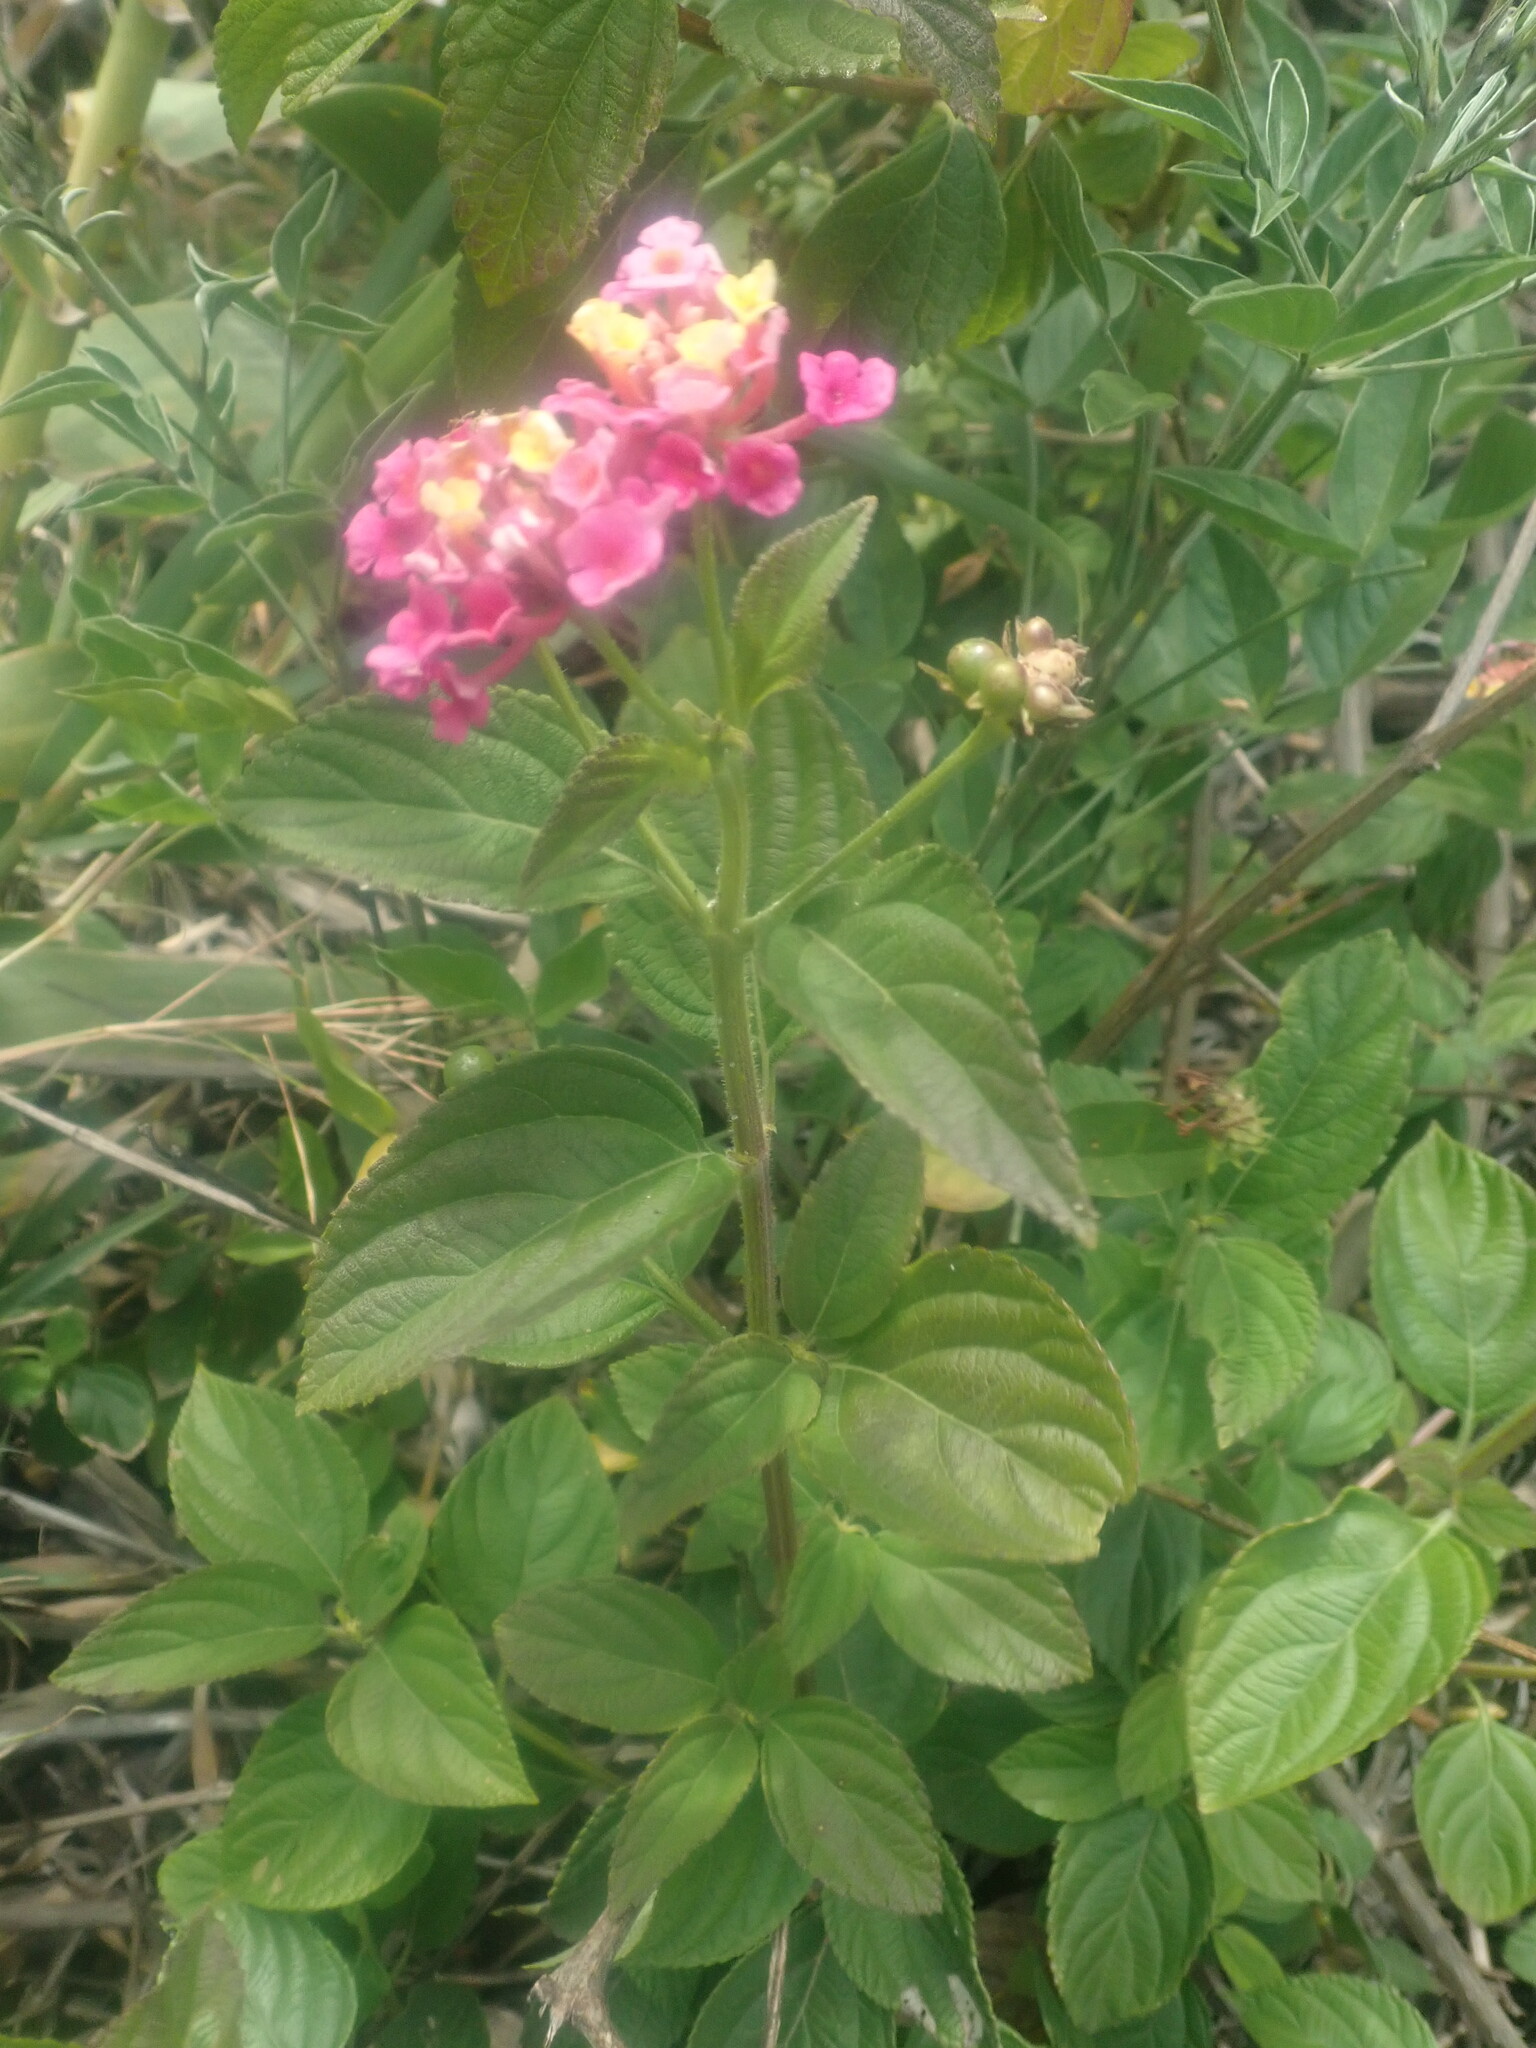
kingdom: Plantae
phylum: Tracheophyta
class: Magnoliopsida
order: Lamiales
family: Verbenaceae
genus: Lantana
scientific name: Lantana camara
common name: Lantana
